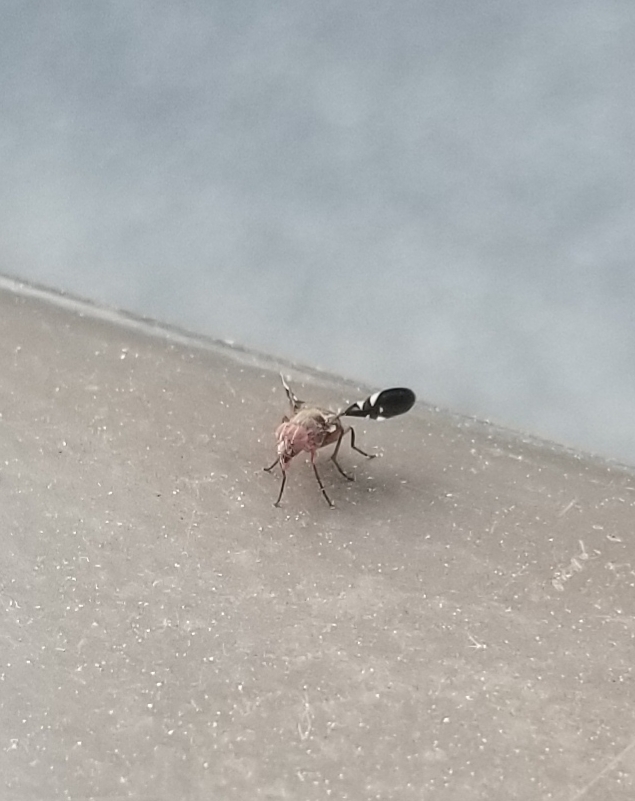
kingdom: Animalia
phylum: Arthropoda
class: Insecta
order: Diptera
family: Ulidiidae
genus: Delphinia
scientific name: Delphinia picta
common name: Common picture-winged fly
